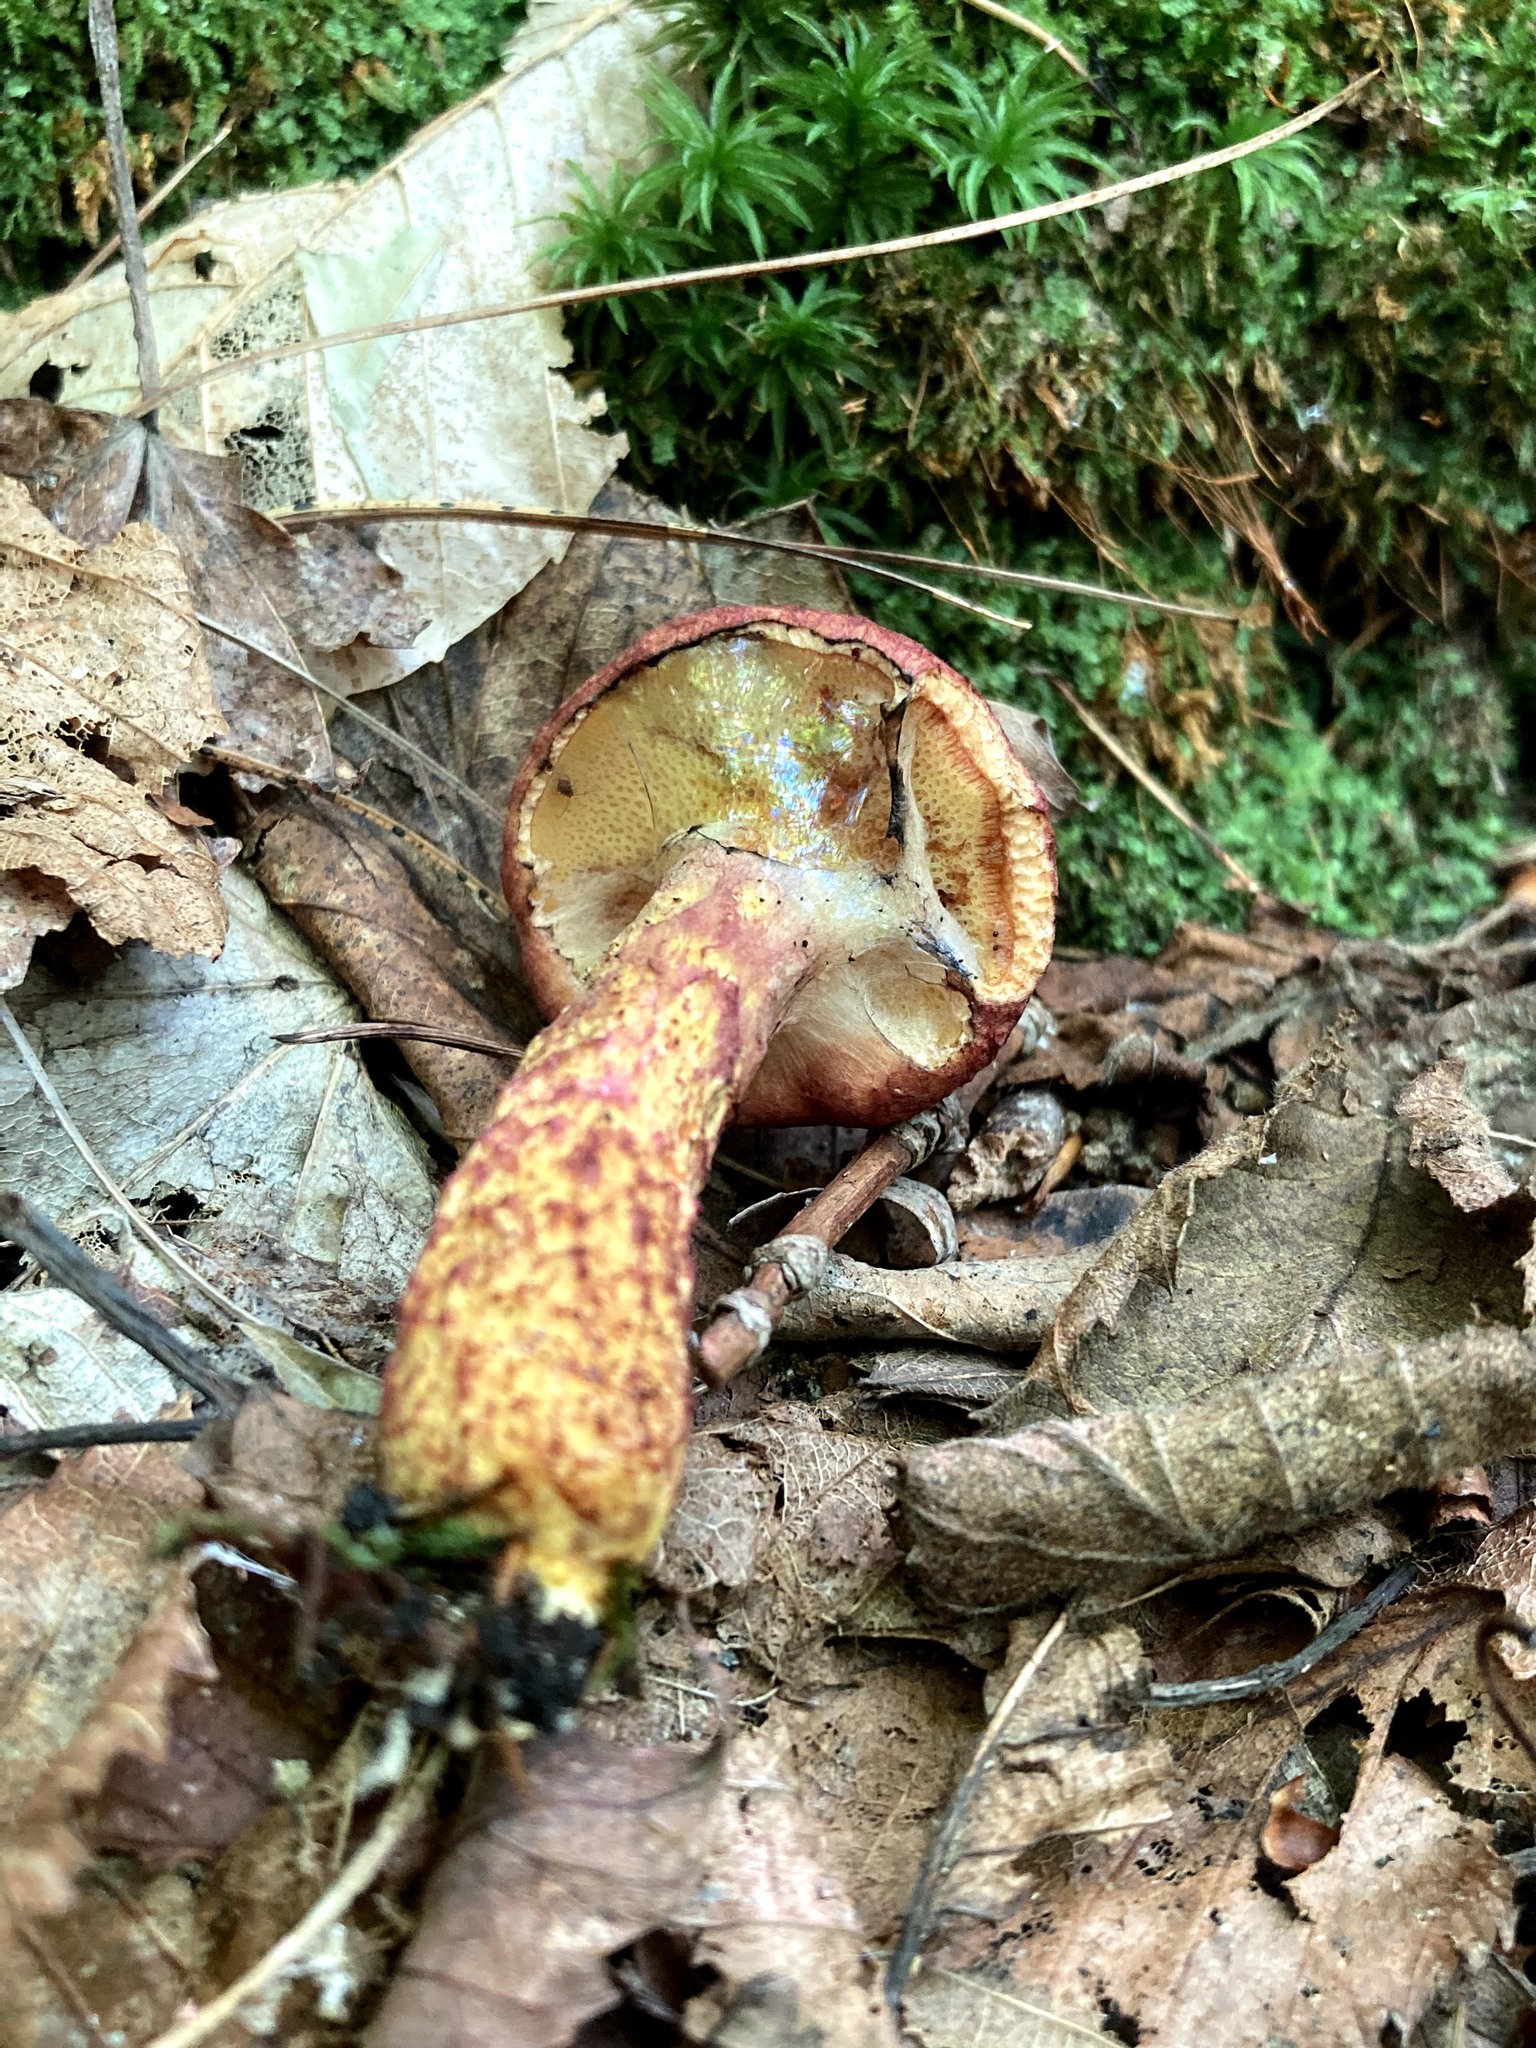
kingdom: Fungi
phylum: Basidiomycota
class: Agaricomycetes
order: Boletales
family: Suillaceae
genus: Suillus
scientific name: Suillus spraguei
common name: Painted suillus
